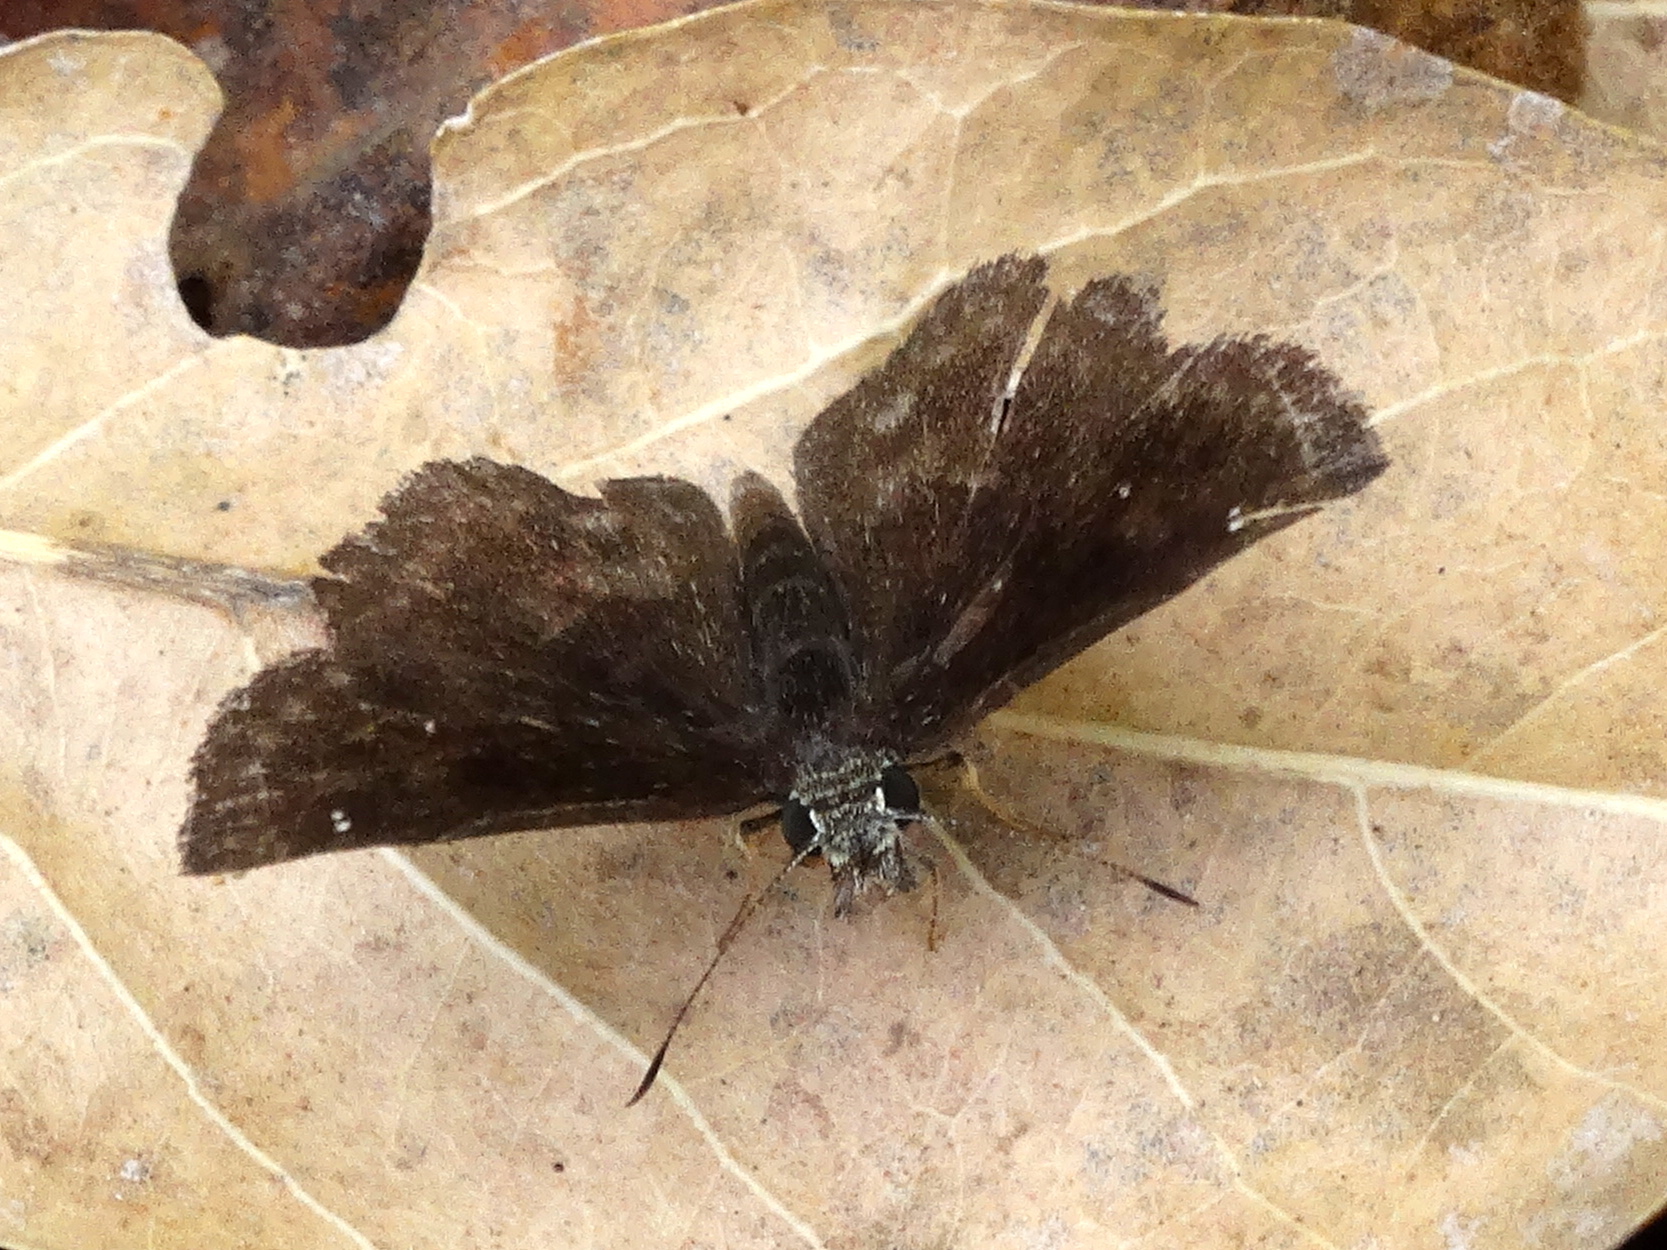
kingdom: Animalia
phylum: Arthropoda
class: Insecta
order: Lepidoptera
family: Hesperiidae
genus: Staphylus
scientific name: Staphylus mazans
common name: Mazans scallopwing
